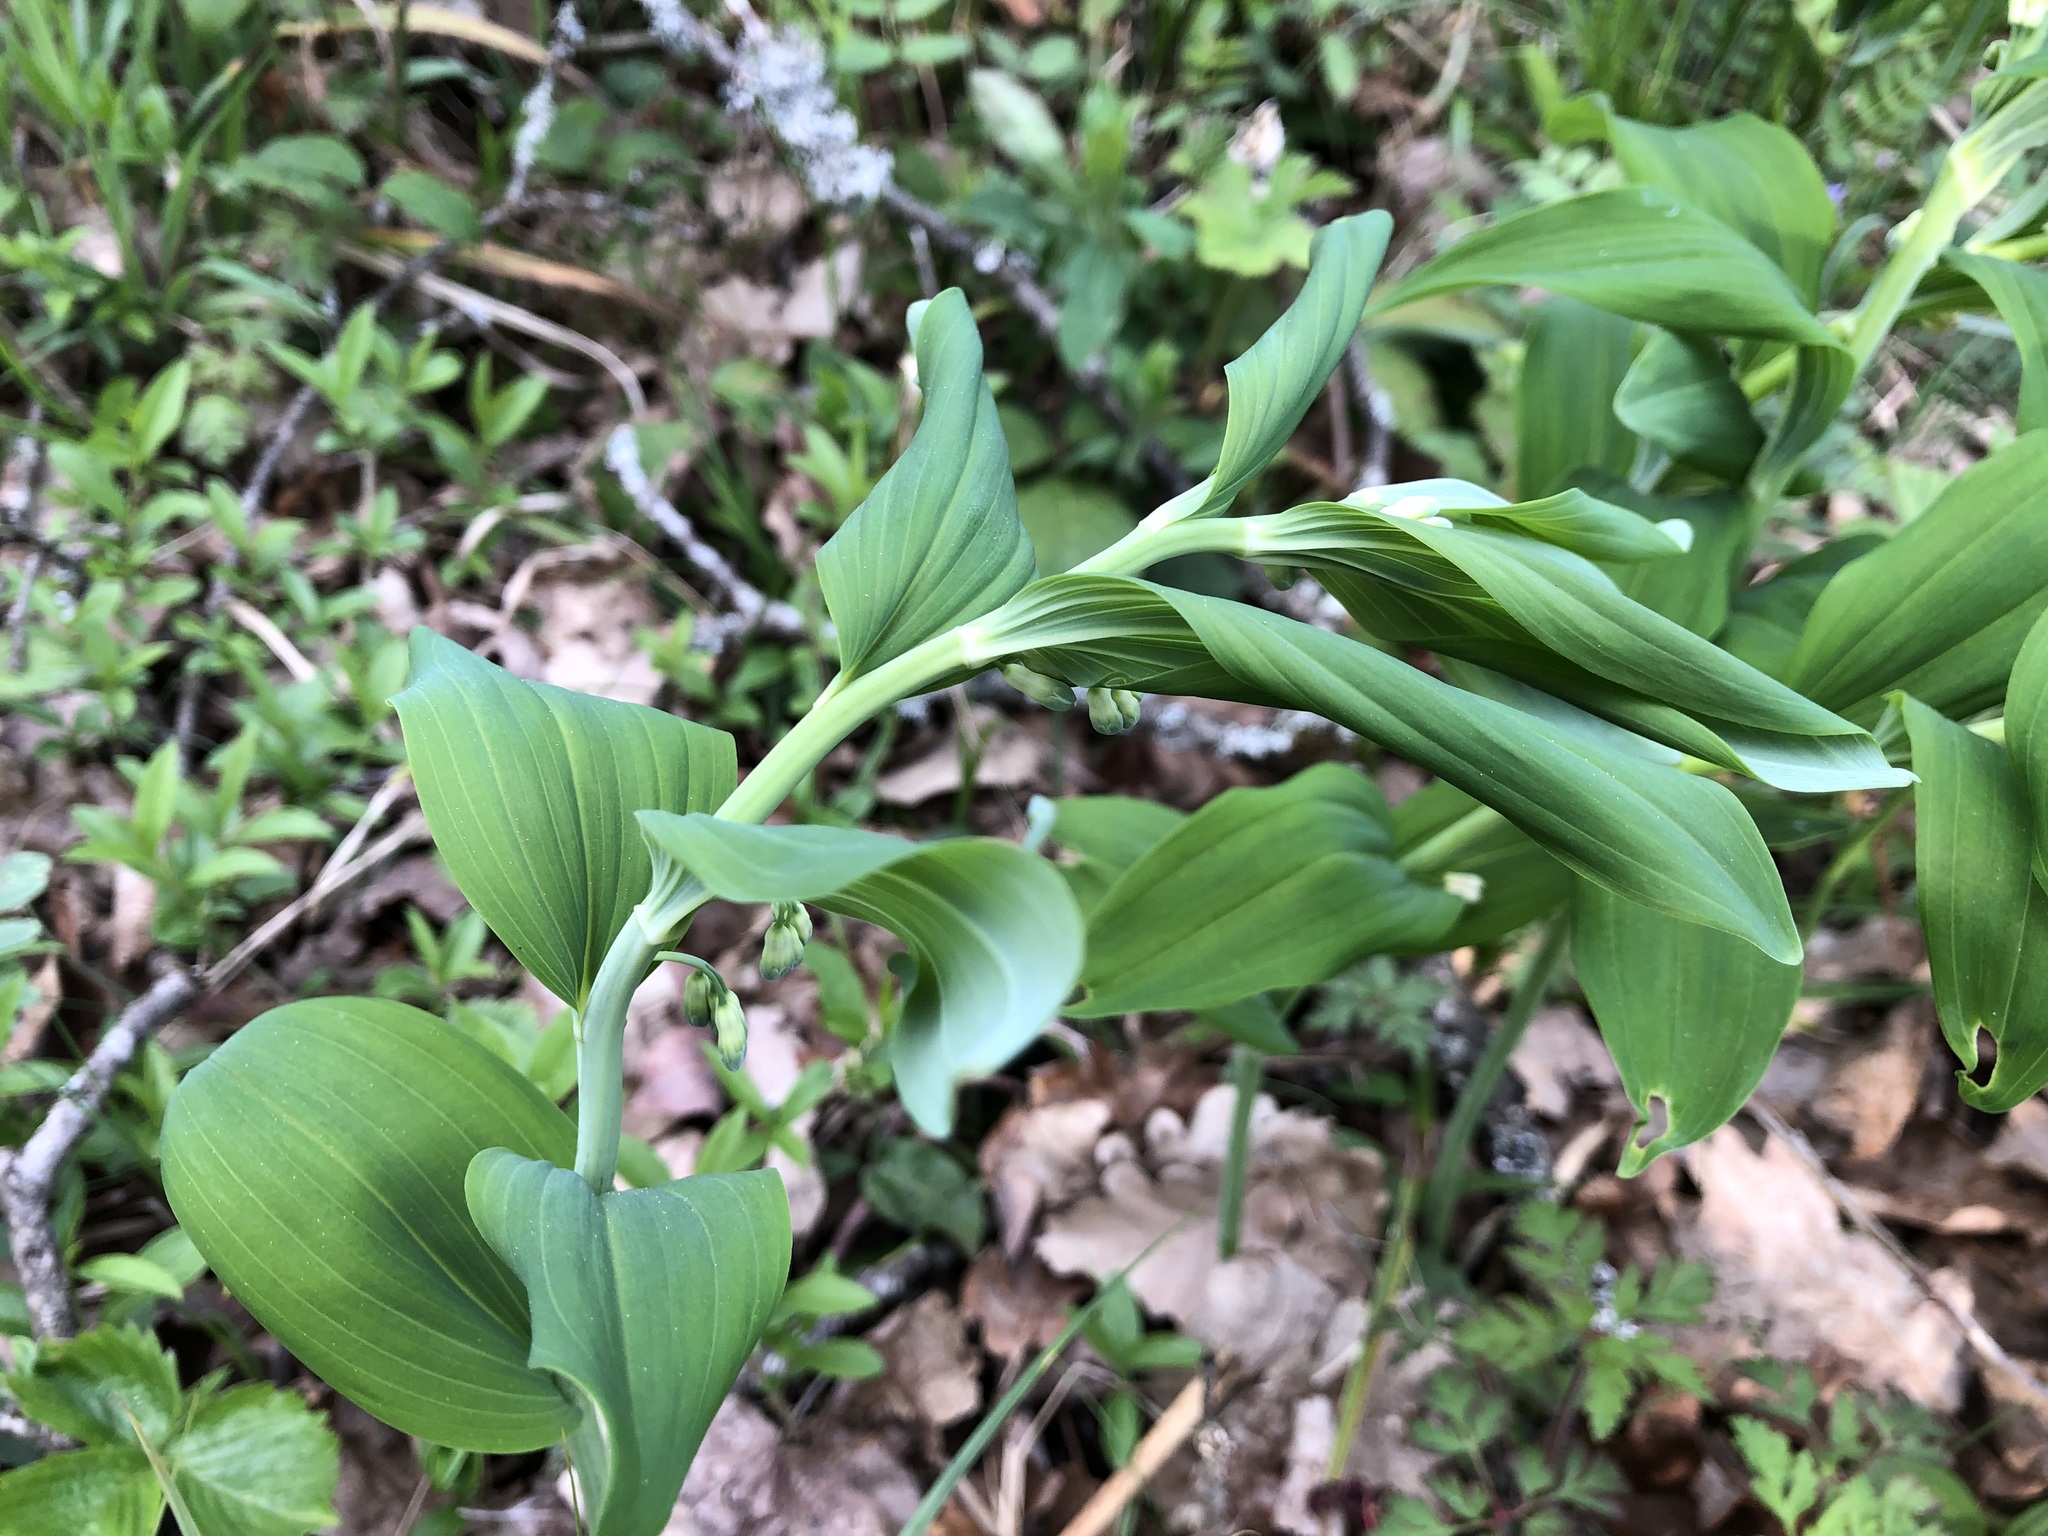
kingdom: Plantae
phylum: Tracheophyta
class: Liliopsida
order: Asparagales
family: Asparagaceae
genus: Polygonatum
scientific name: Polygonatum multiflorum
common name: Solomon's-seal
